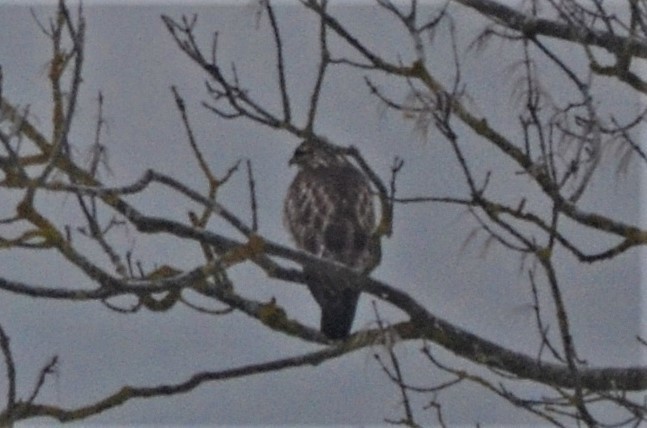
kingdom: Animalia
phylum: Chordata
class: Aves
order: Accipitriformes
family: Accipitridae
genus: Buteo
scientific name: Buteo buteo
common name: Common buzzard
